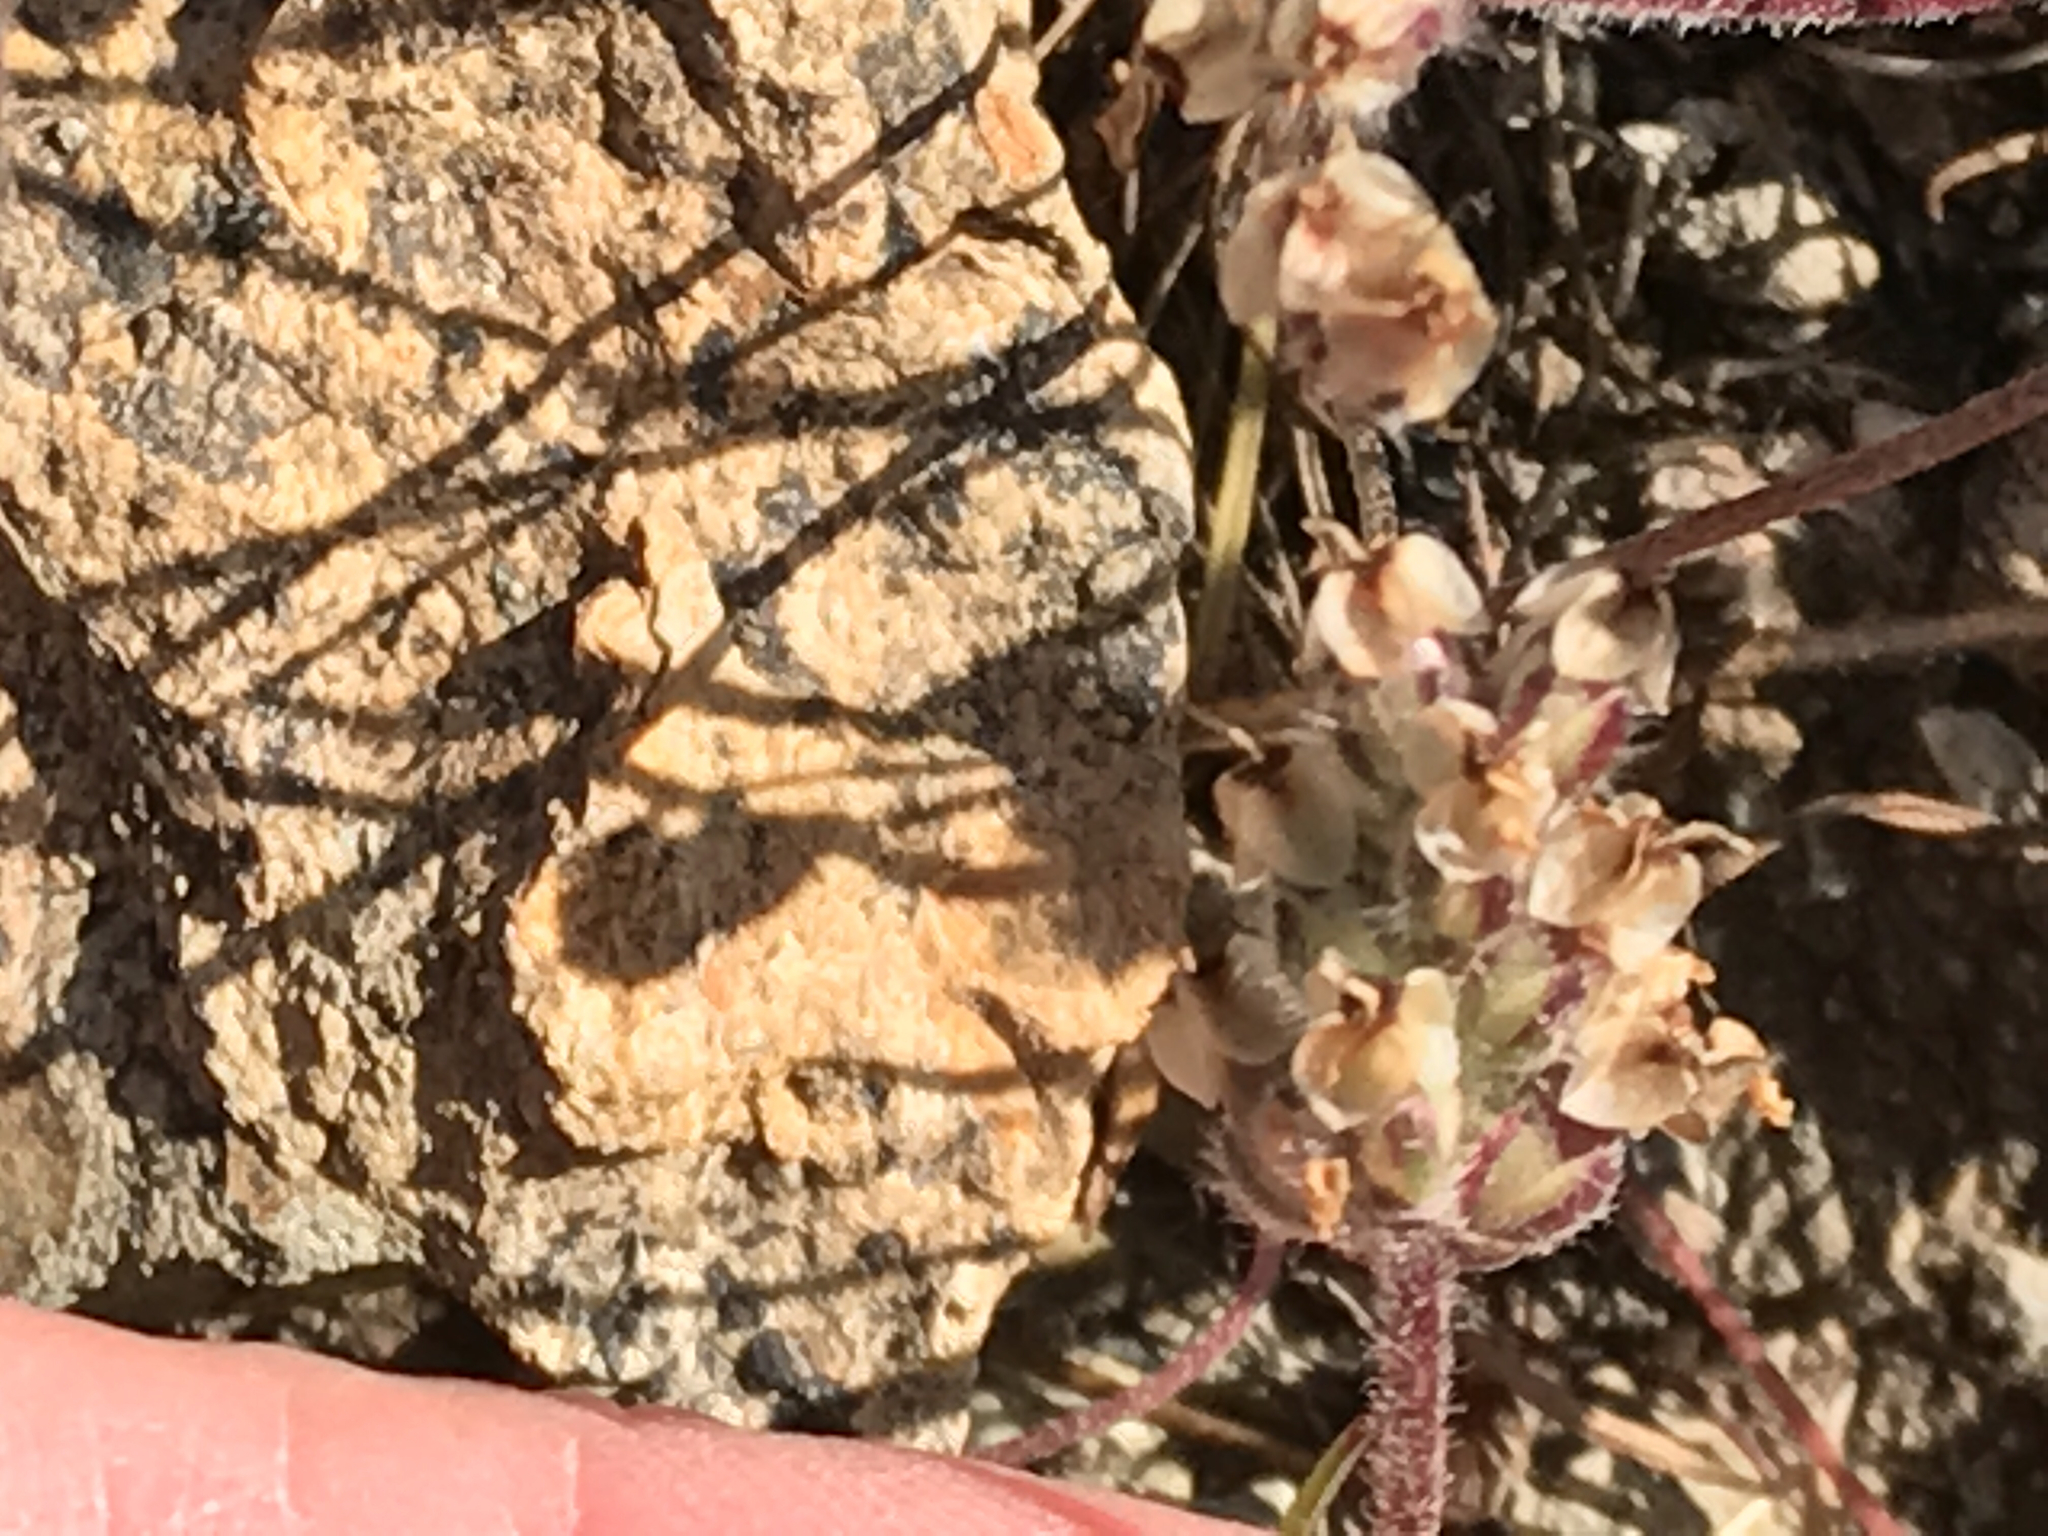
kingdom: Plantae
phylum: Tracheophyta
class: Magnoliopsida
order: Lamiales
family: Plantaginaceae
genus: Plantago
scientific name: Plantago erecta
